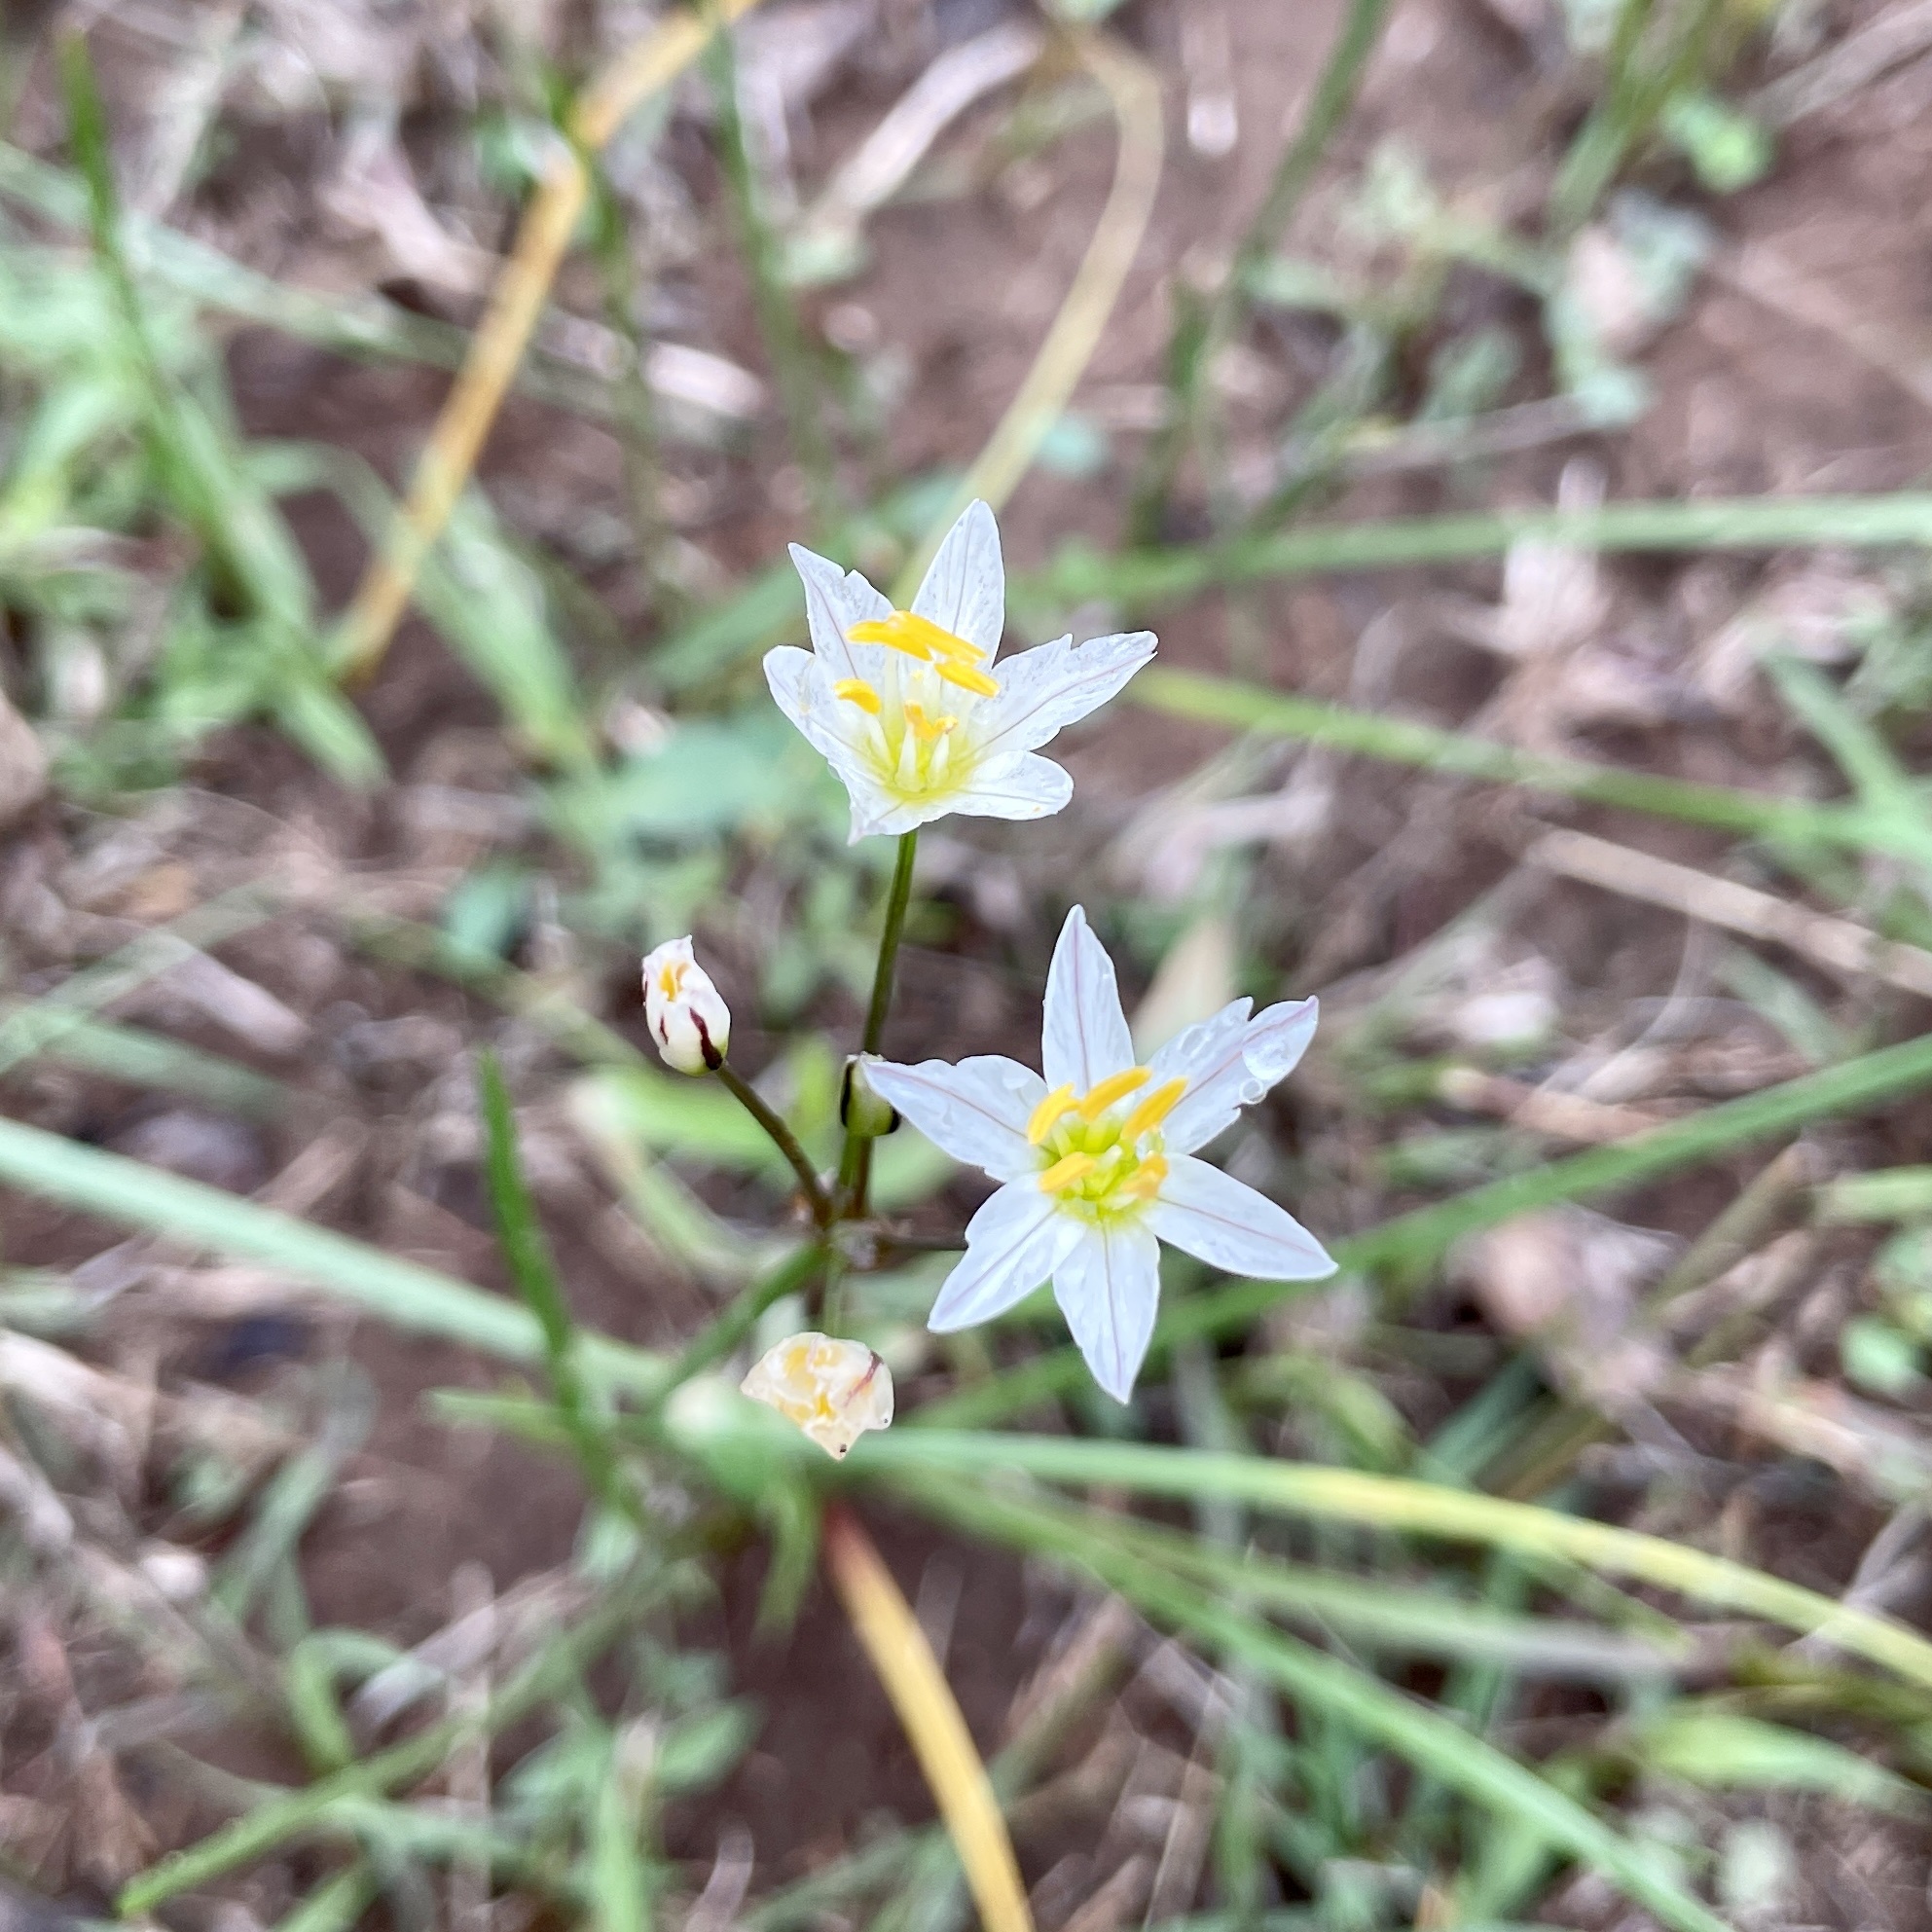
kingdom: Plantae
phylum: Tracheophyta
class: Liliopsida
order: Asparagales
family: Amaryllidaceae
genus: Nothoscordum
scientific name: Nothoscordum bivalve
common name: Crow-poison
